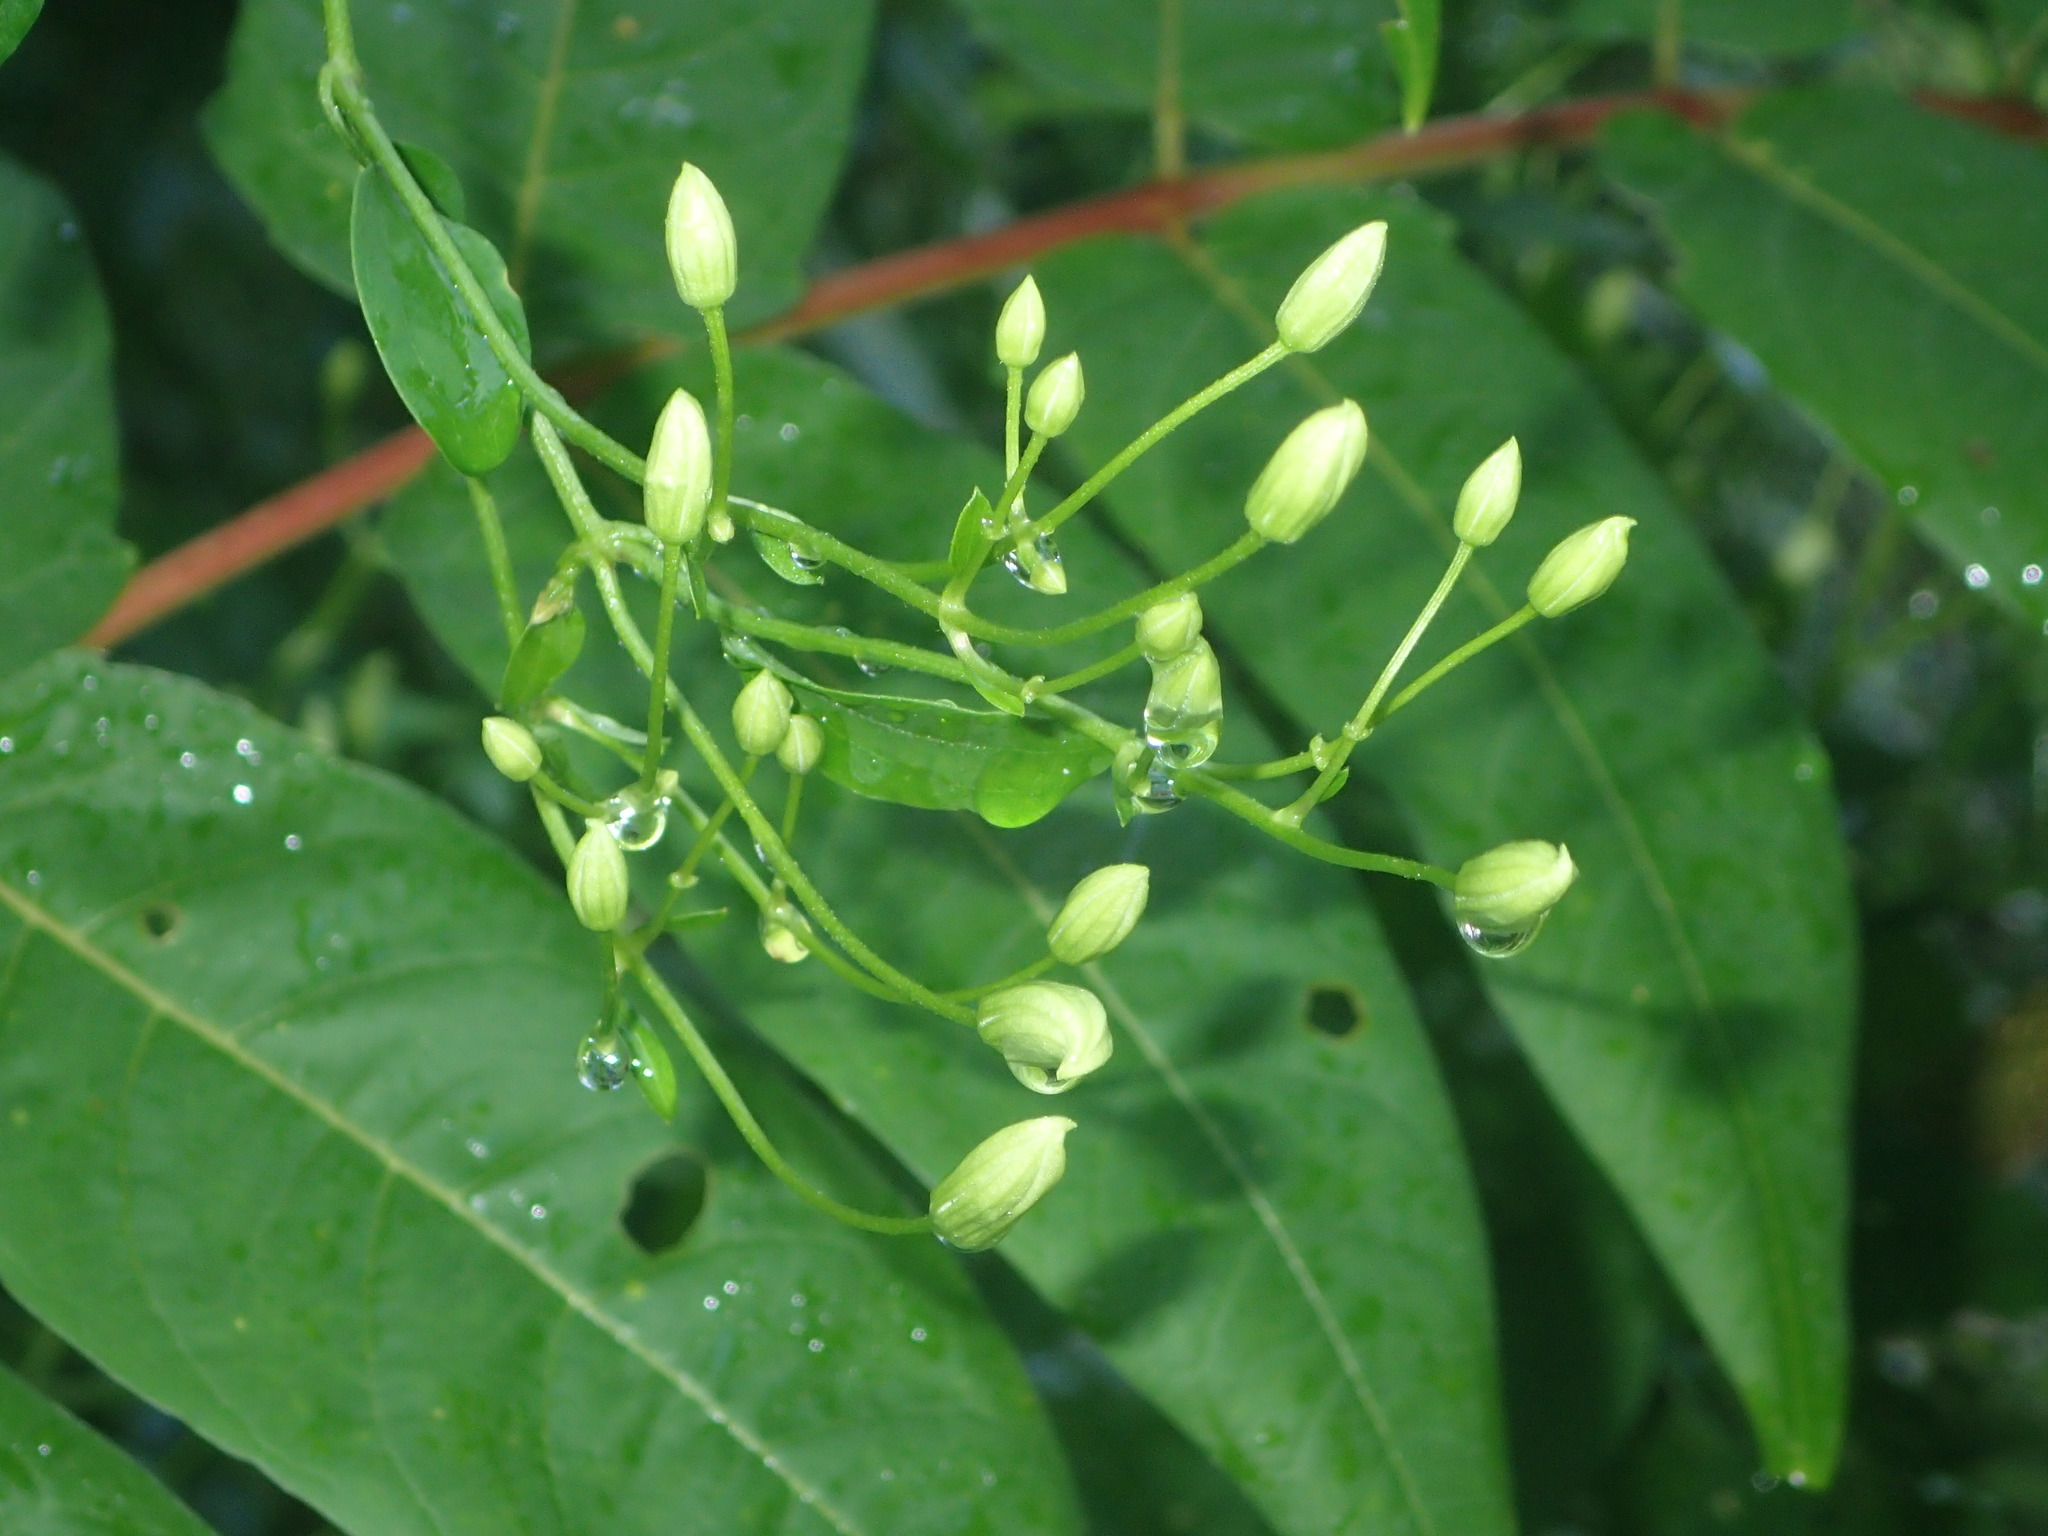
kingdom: Plantae
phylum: Tracheophyta
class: Magnoliopsida
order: Ranunculales
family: Ranunculaceae
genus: Clematis
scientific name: Clematis terniflora
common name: Sweet autumn clematis
